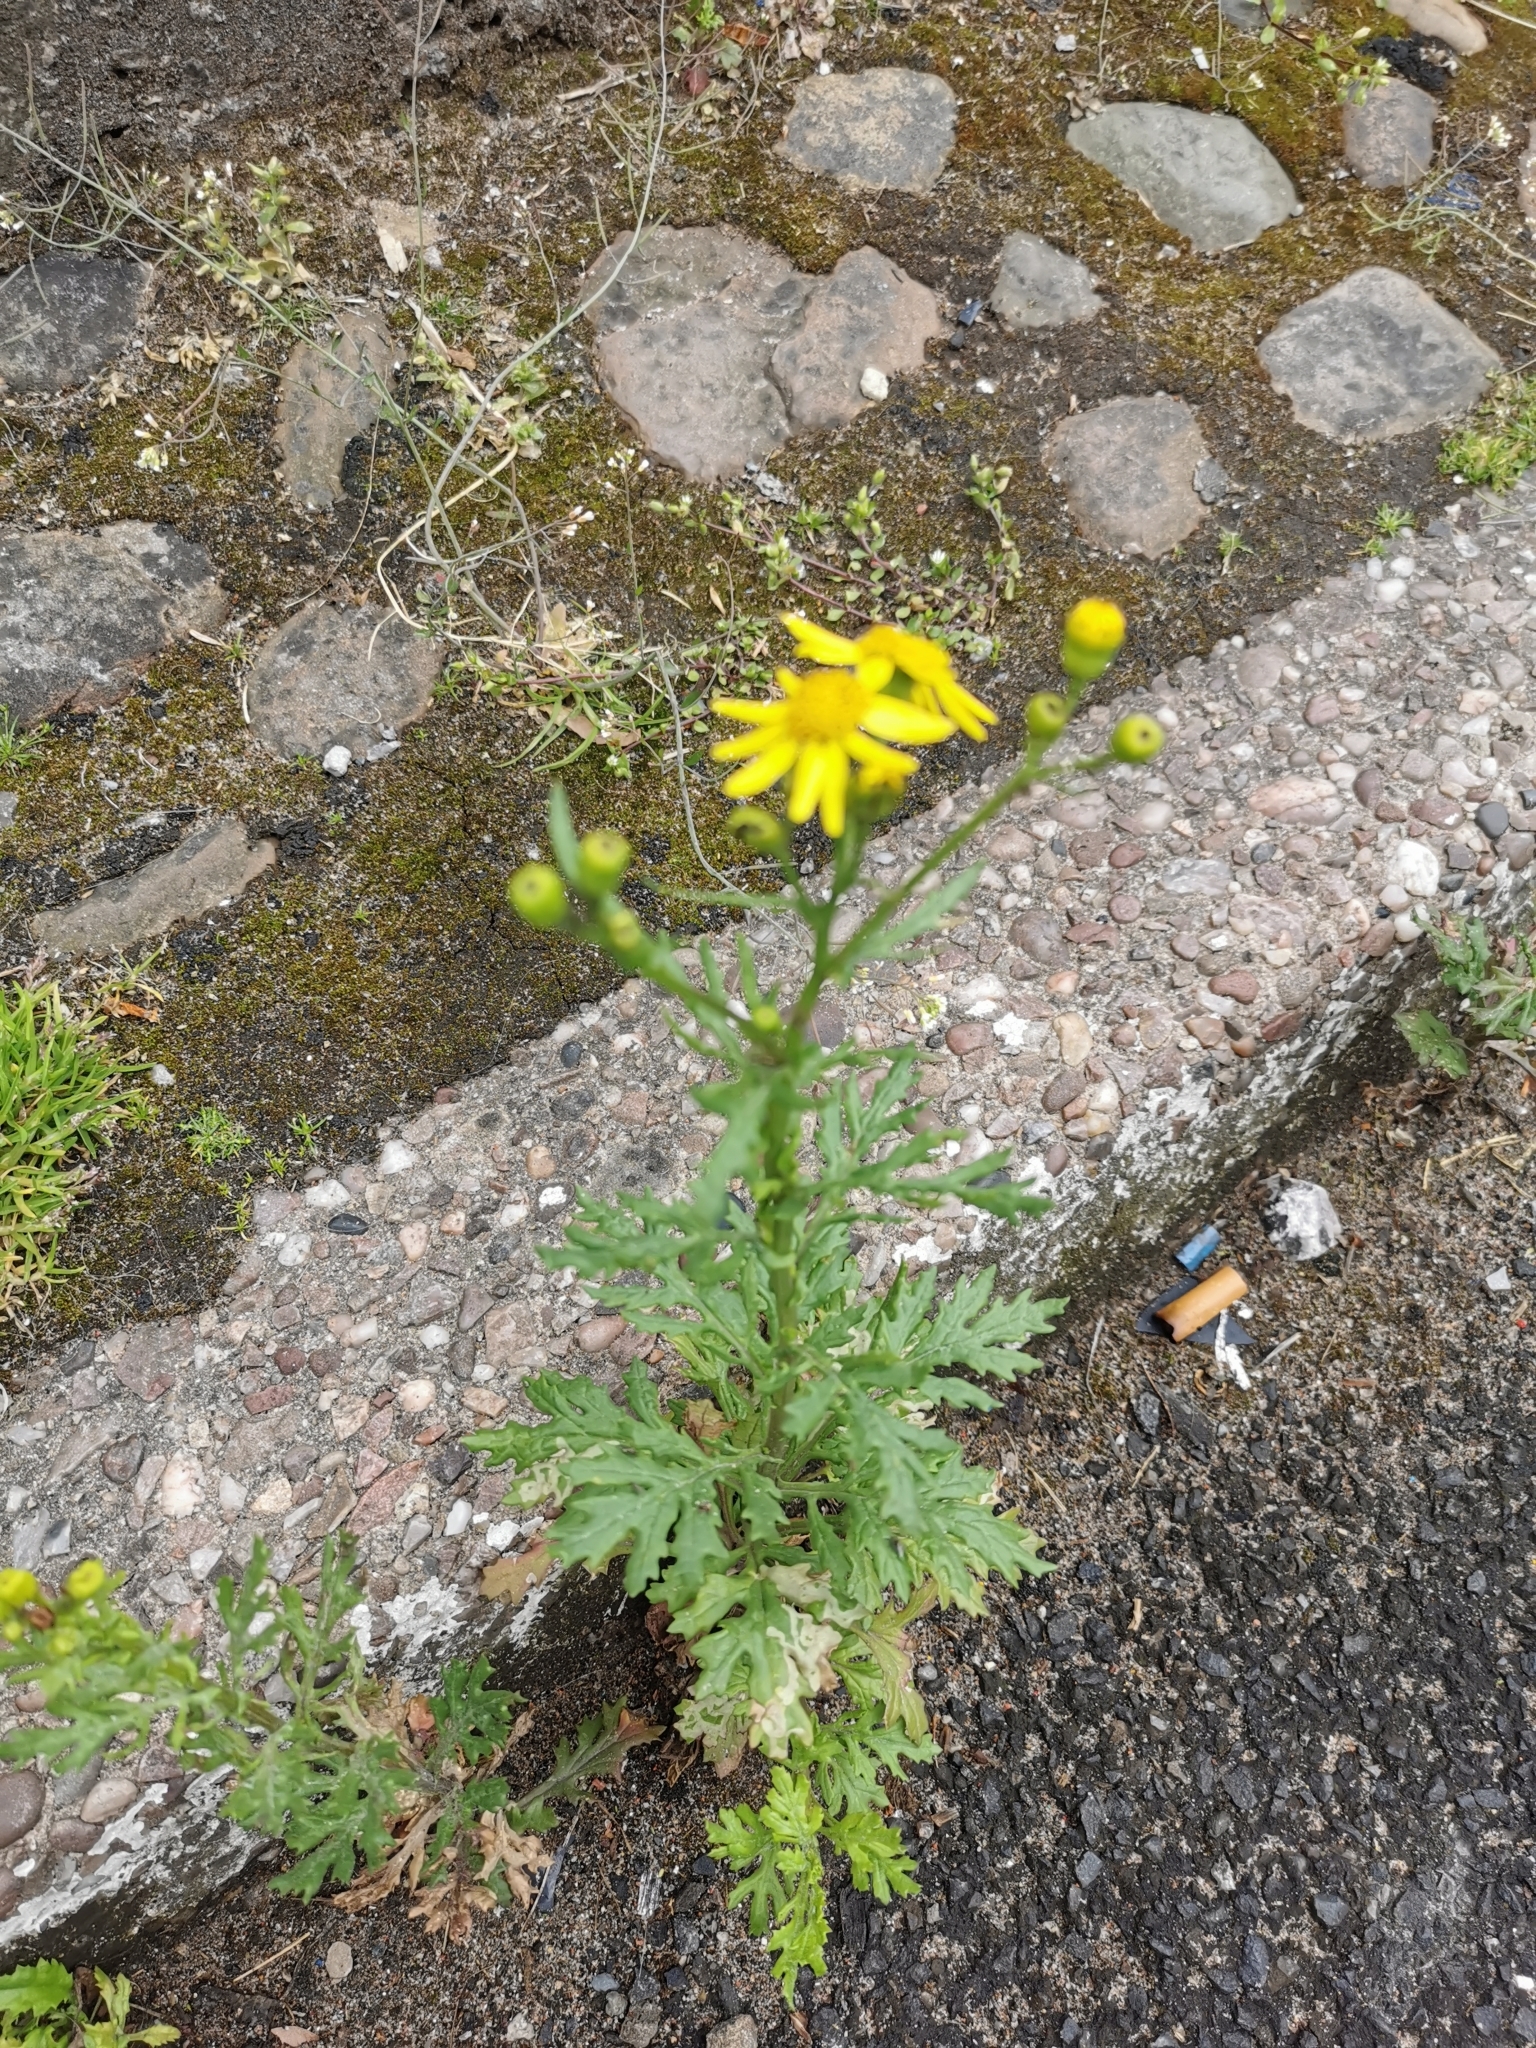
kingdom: Plantae
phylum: Tracheophyta
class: Magnoliopsida
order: Asterales
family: Asteraceae
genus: Senecio
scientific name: Senecio squalidus
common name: Oxford ragwort
